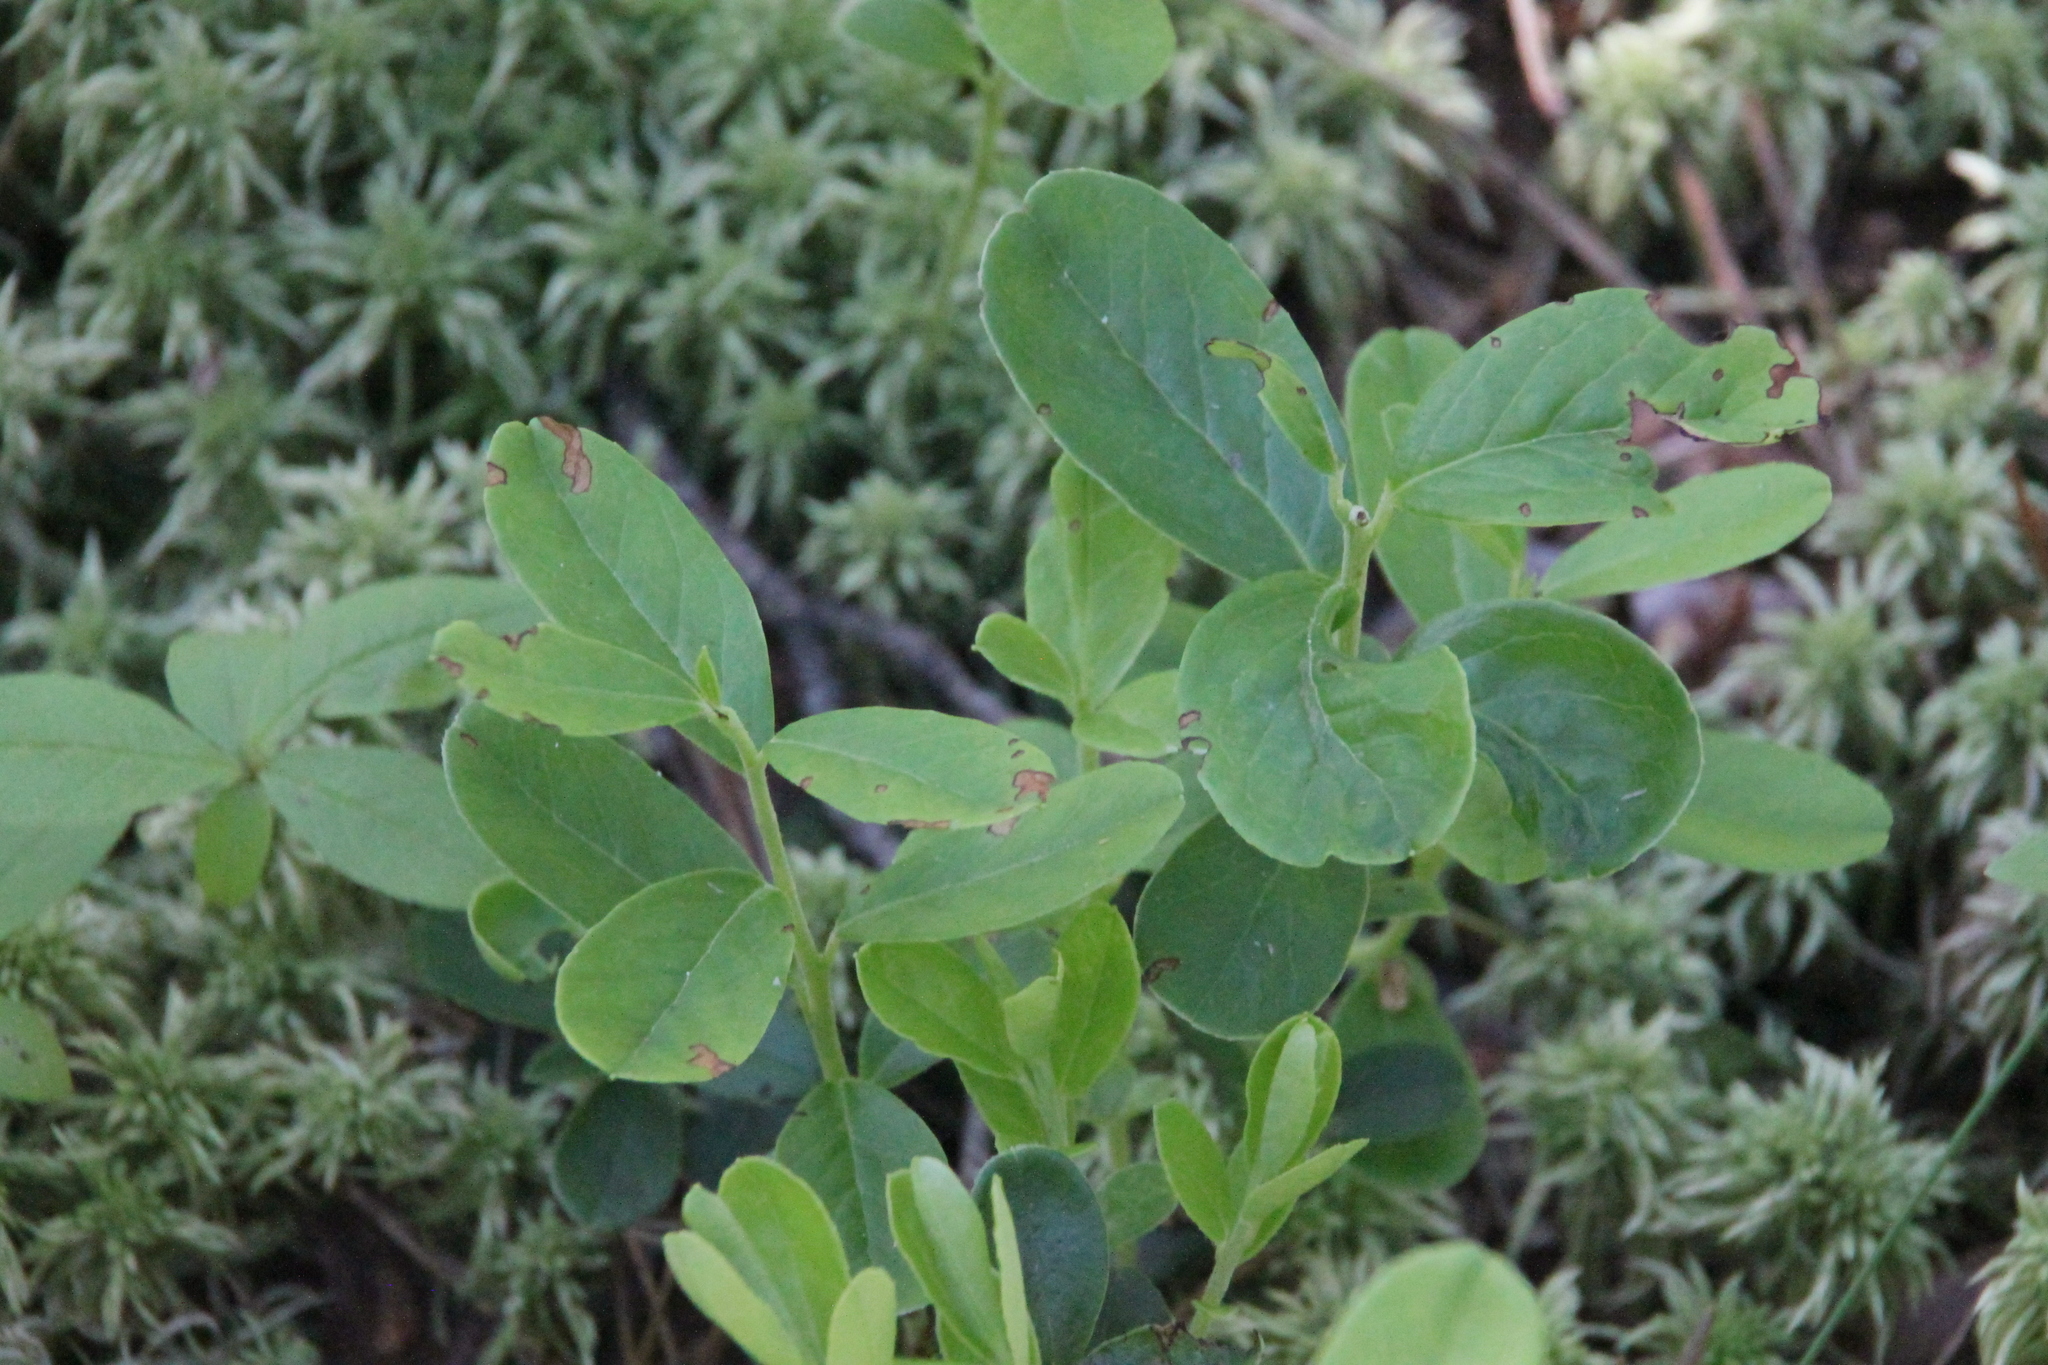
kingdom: Plantae
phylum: Tracheophyta
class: Magnoliopsida
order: Ericales
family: Ericaceae
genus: Vaccinium
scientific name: Vaccinium vitis-idaea
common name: Cowberry
